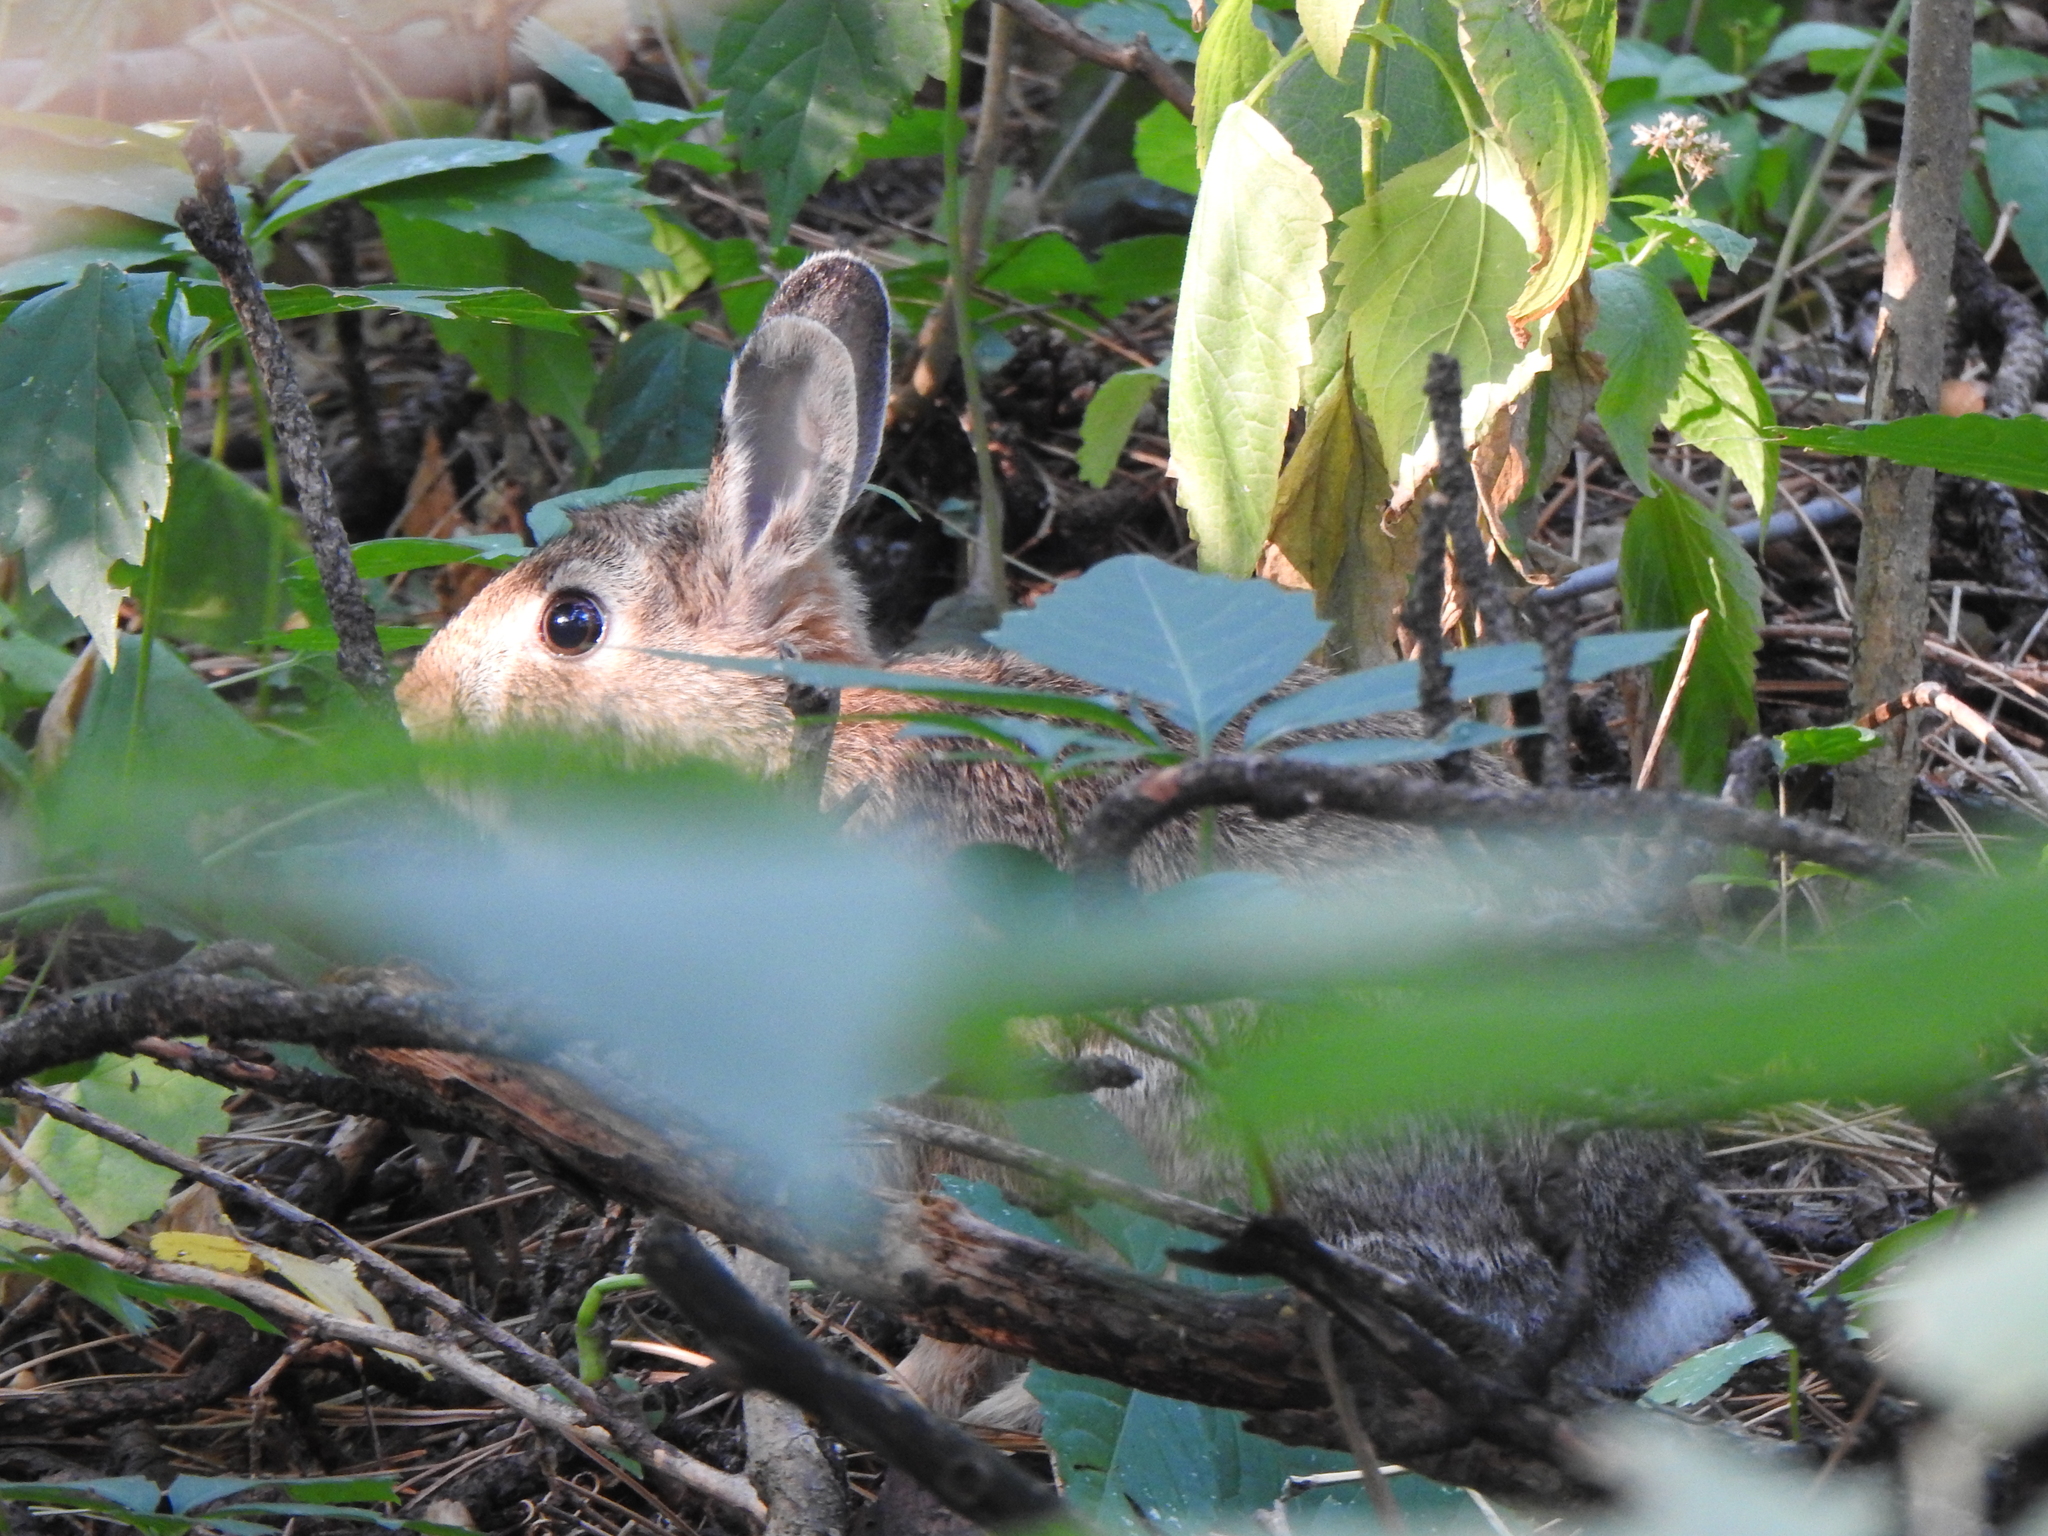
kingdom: Animalia
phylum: Chordata
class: Mammalia
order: Lagomorpha
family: Leporidae
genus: Sylvilagus
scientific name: Sylvilagus floridanus
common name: Eastern cottontail
